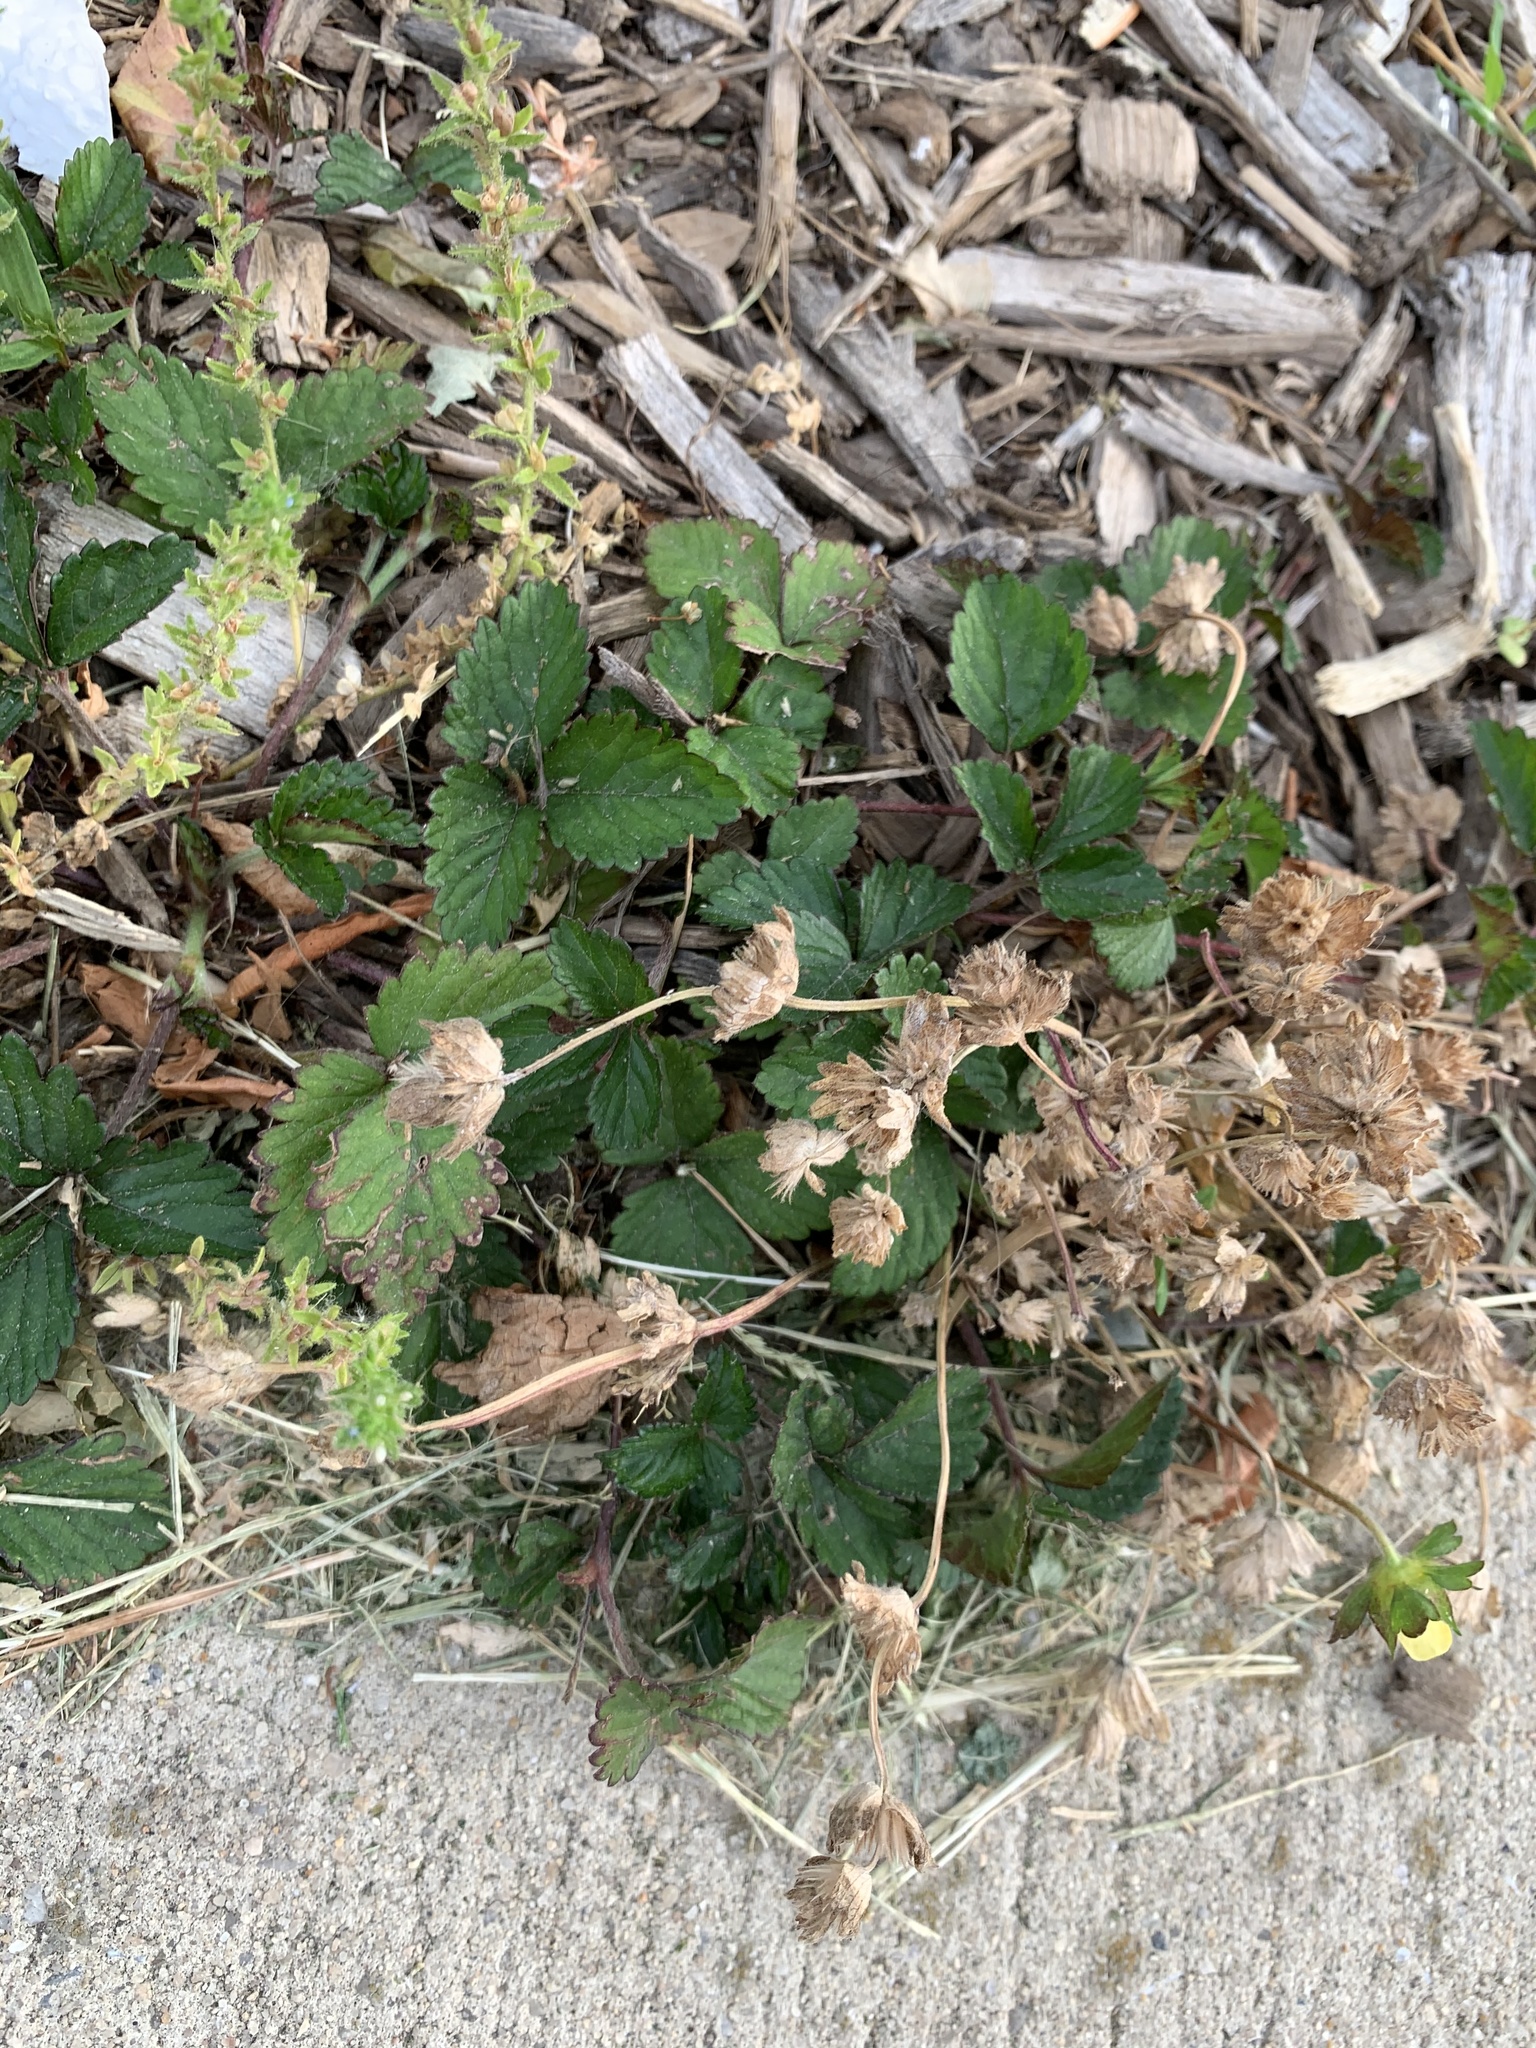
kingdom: Plantae
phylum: Tracheophyta
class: Magnoliopsida
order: Rosales
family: Rosaceae
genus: Potentilla
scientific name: Potentilla indica
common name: Yellow-flowered strawberry
